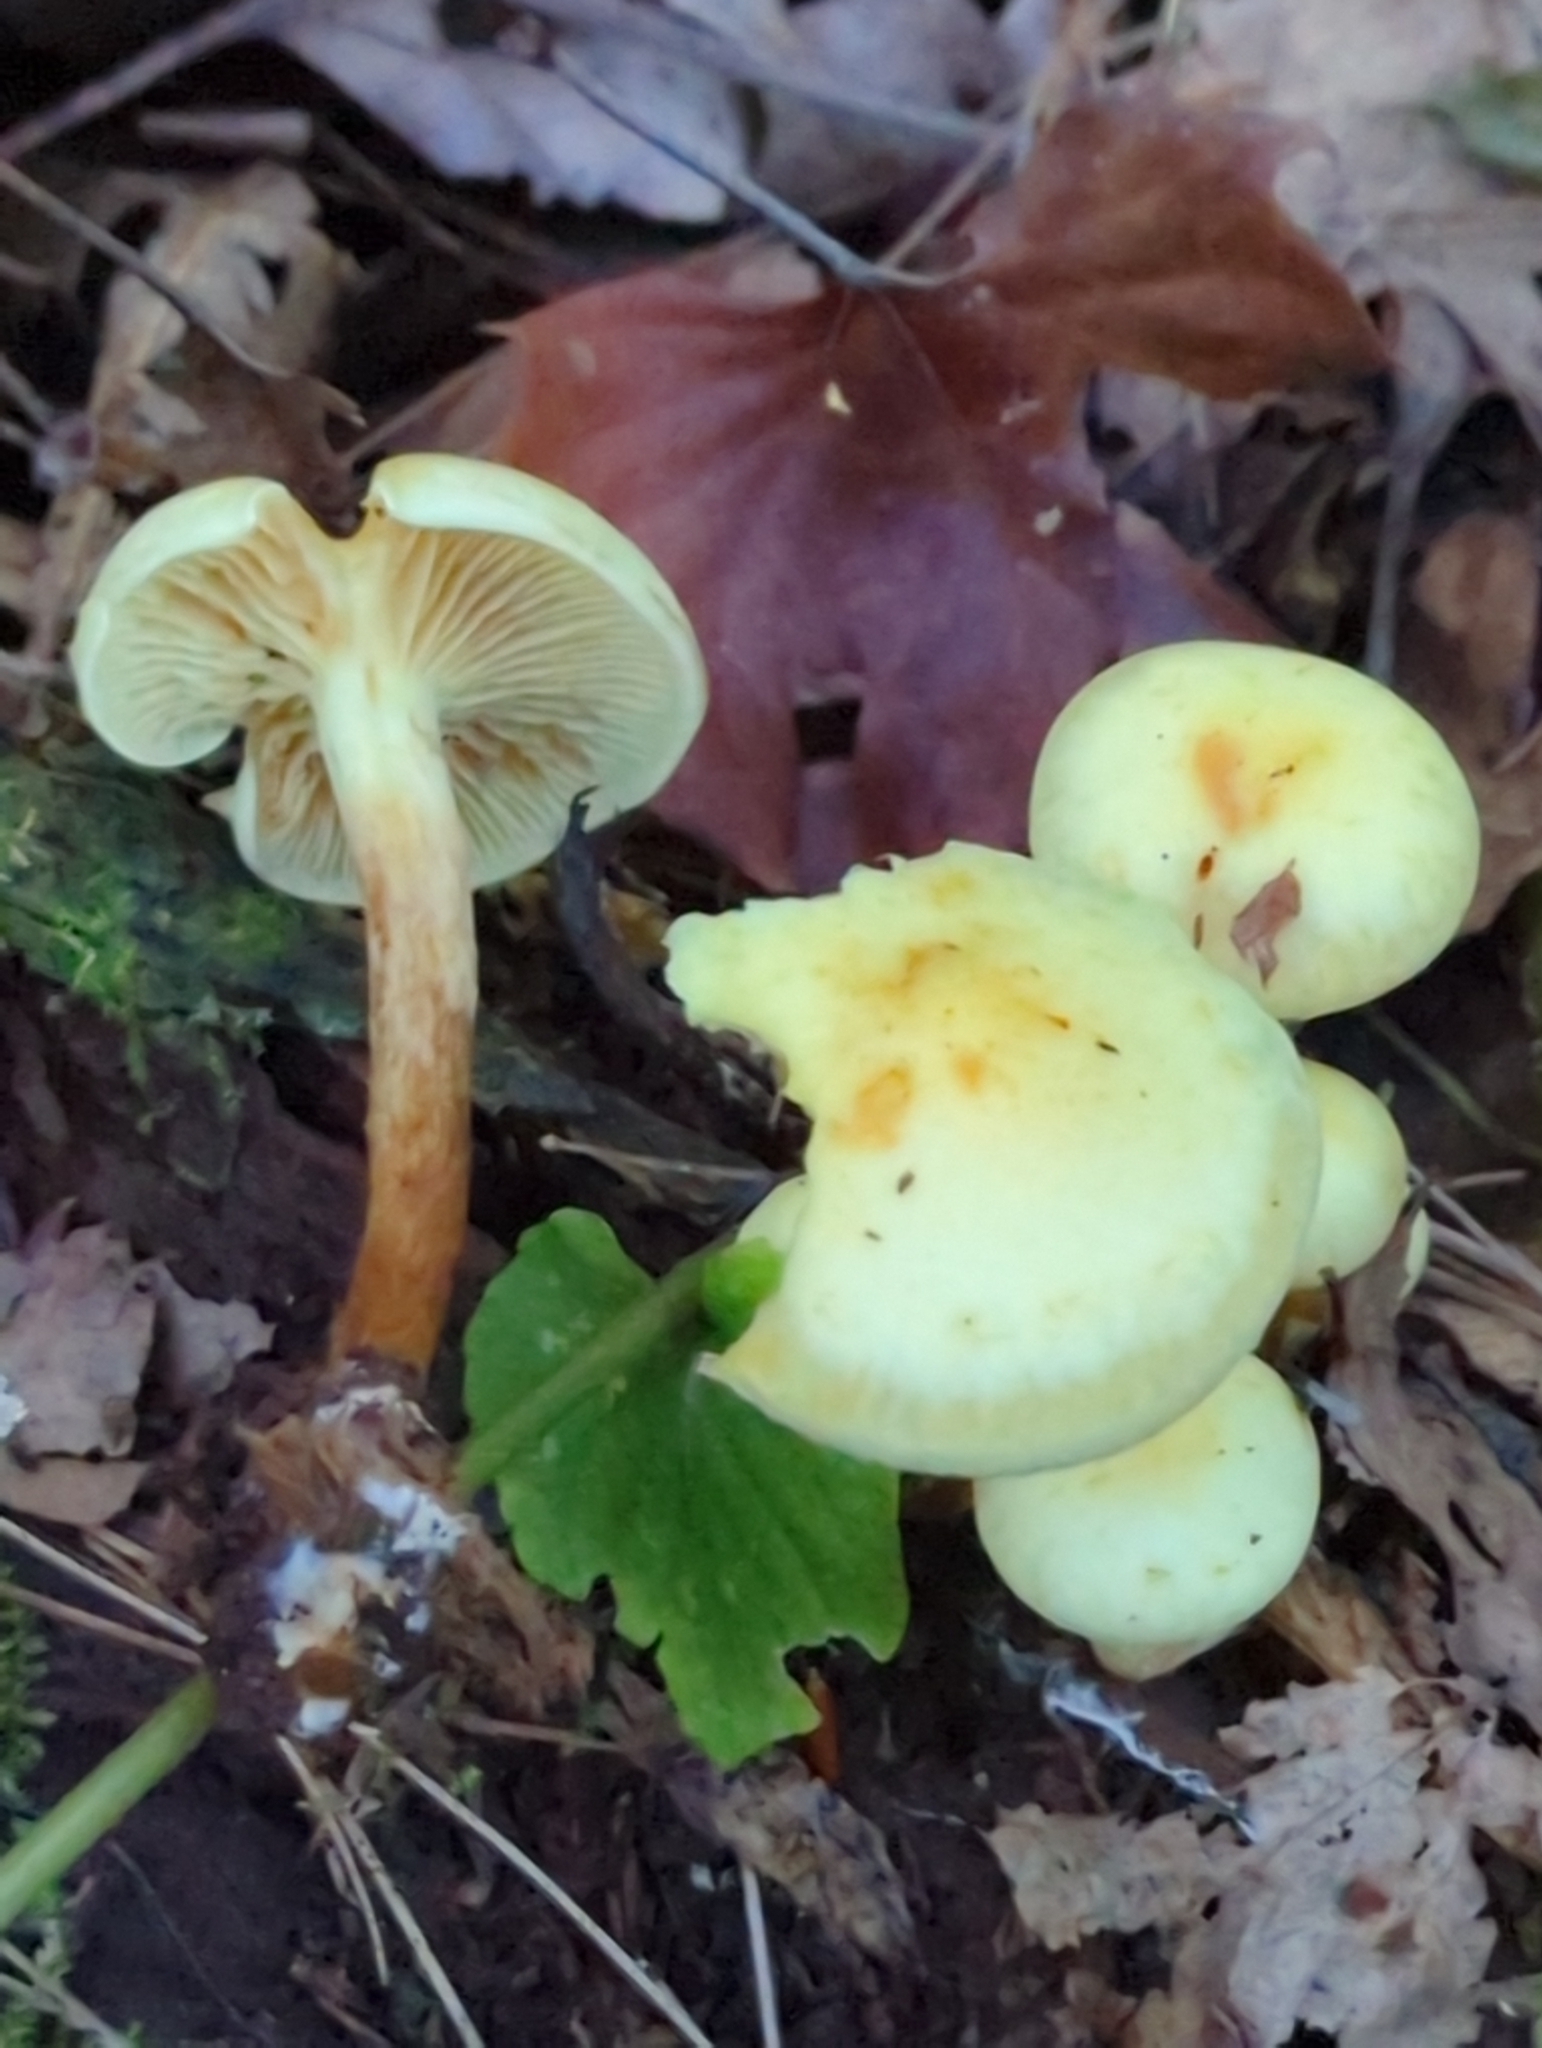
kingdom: Fungi
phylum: Basidiomycota
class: Agaricomycetes
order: Agaricales
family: Hymenogastraceae
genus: Flammula
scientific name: Flammula alnicola
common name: Alder scalycap
